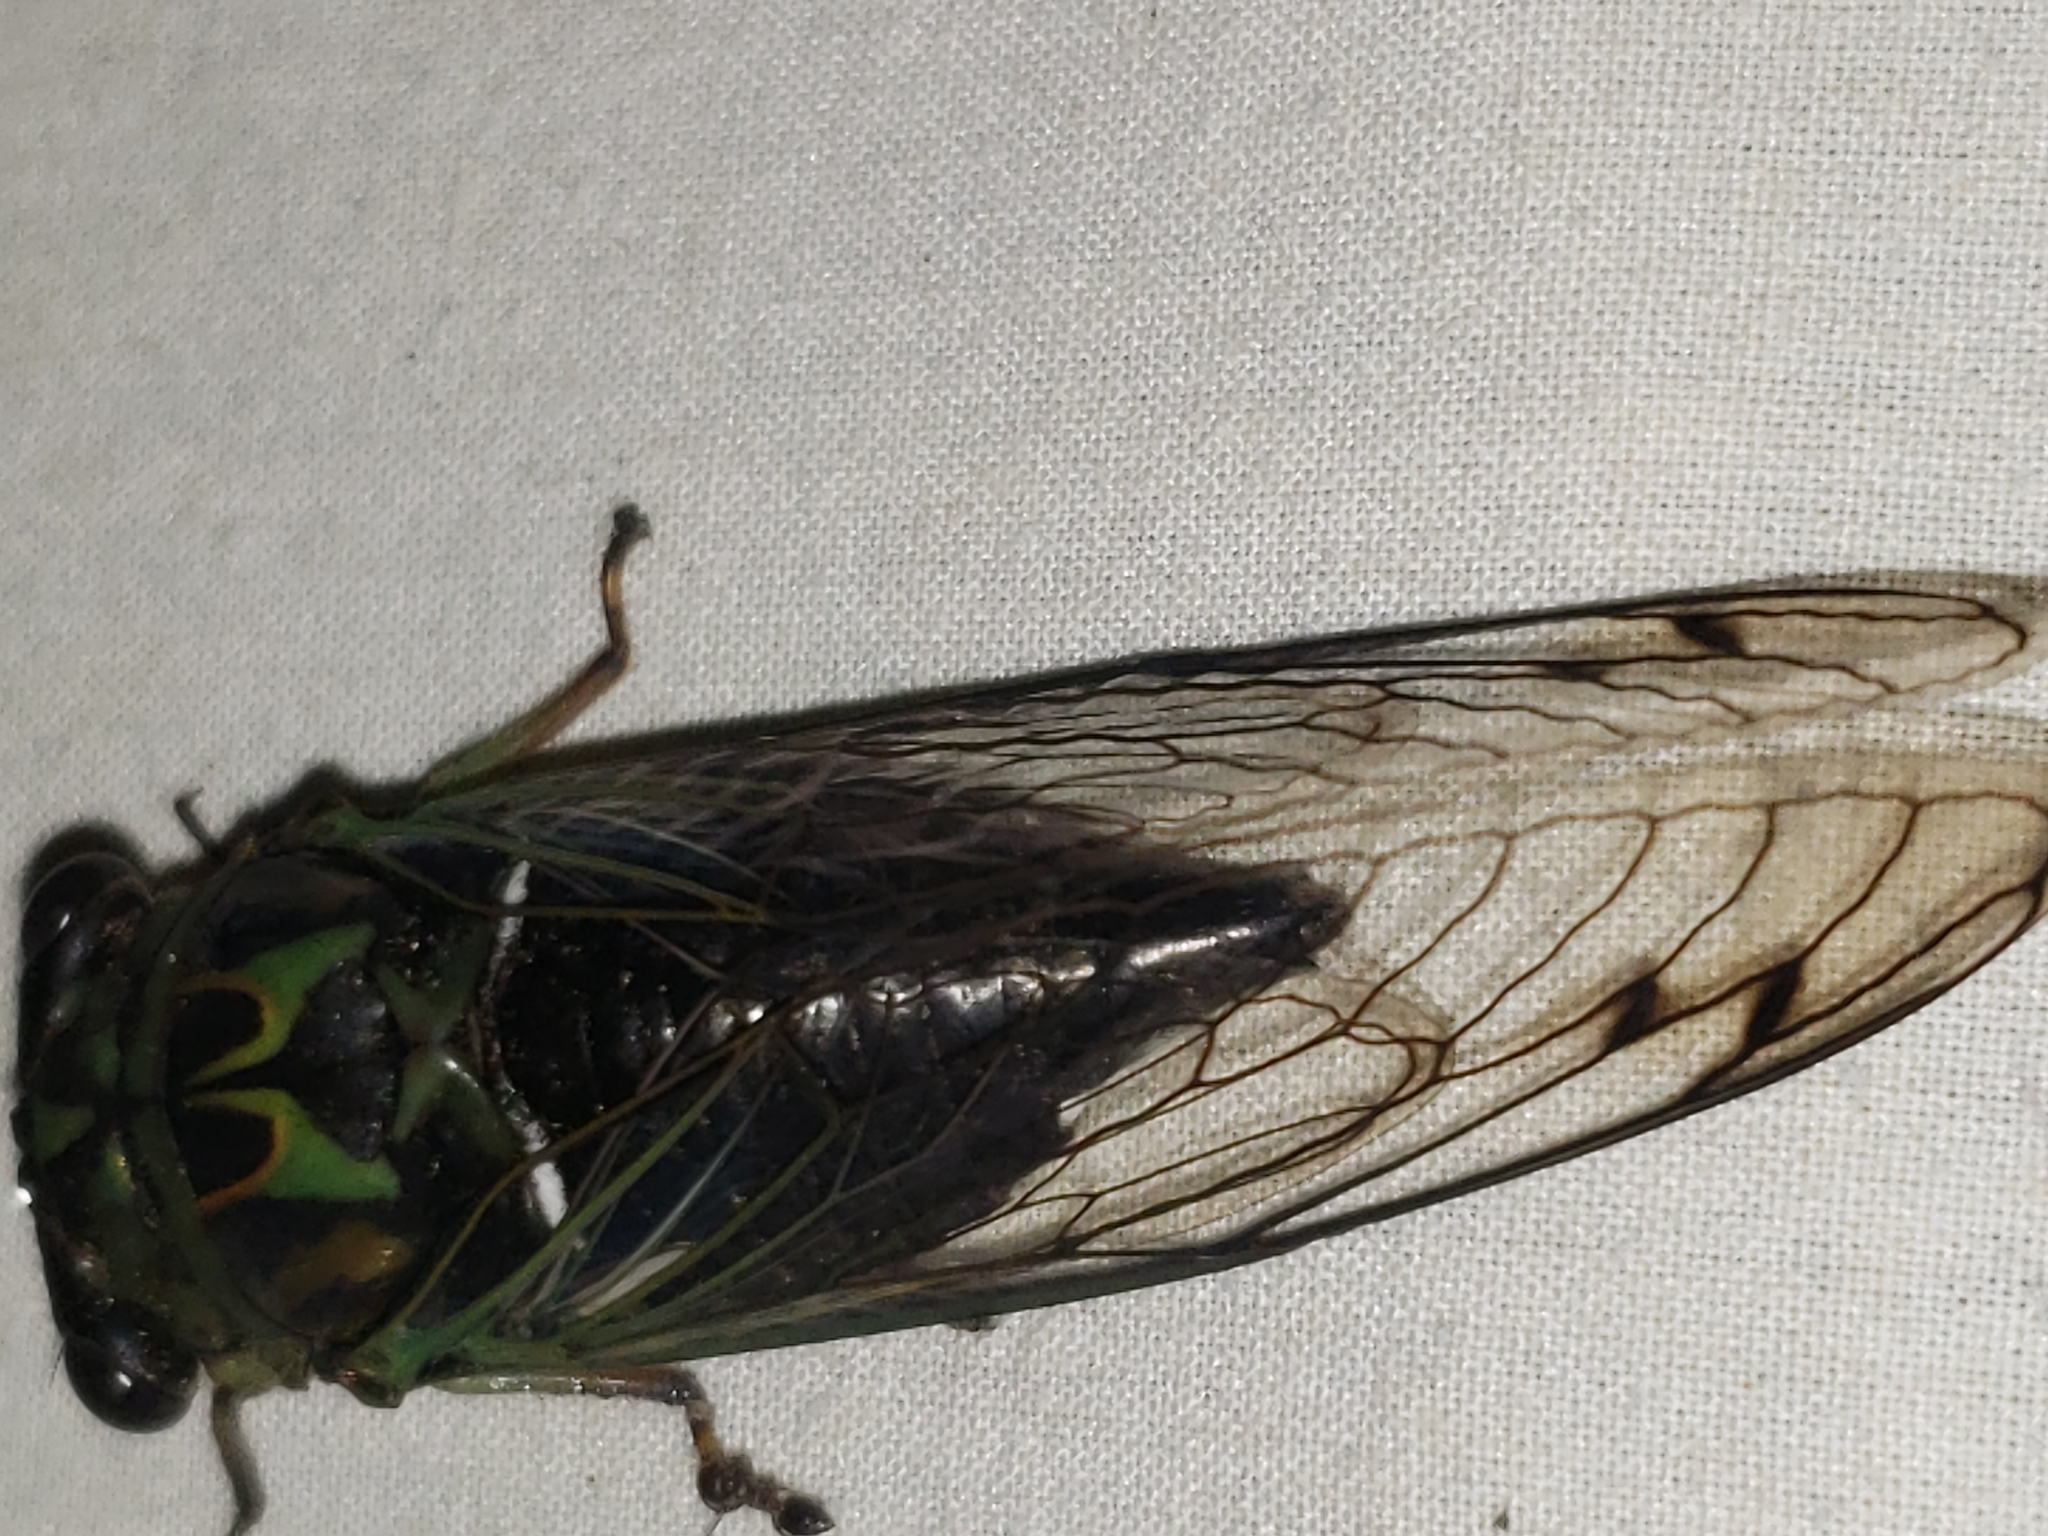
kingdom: Animalia
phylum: Arthropoda
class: Insecta
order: Hemiptera
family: Cicadidae
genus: Neotibicen
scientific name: Neotibicen robinsonianus
